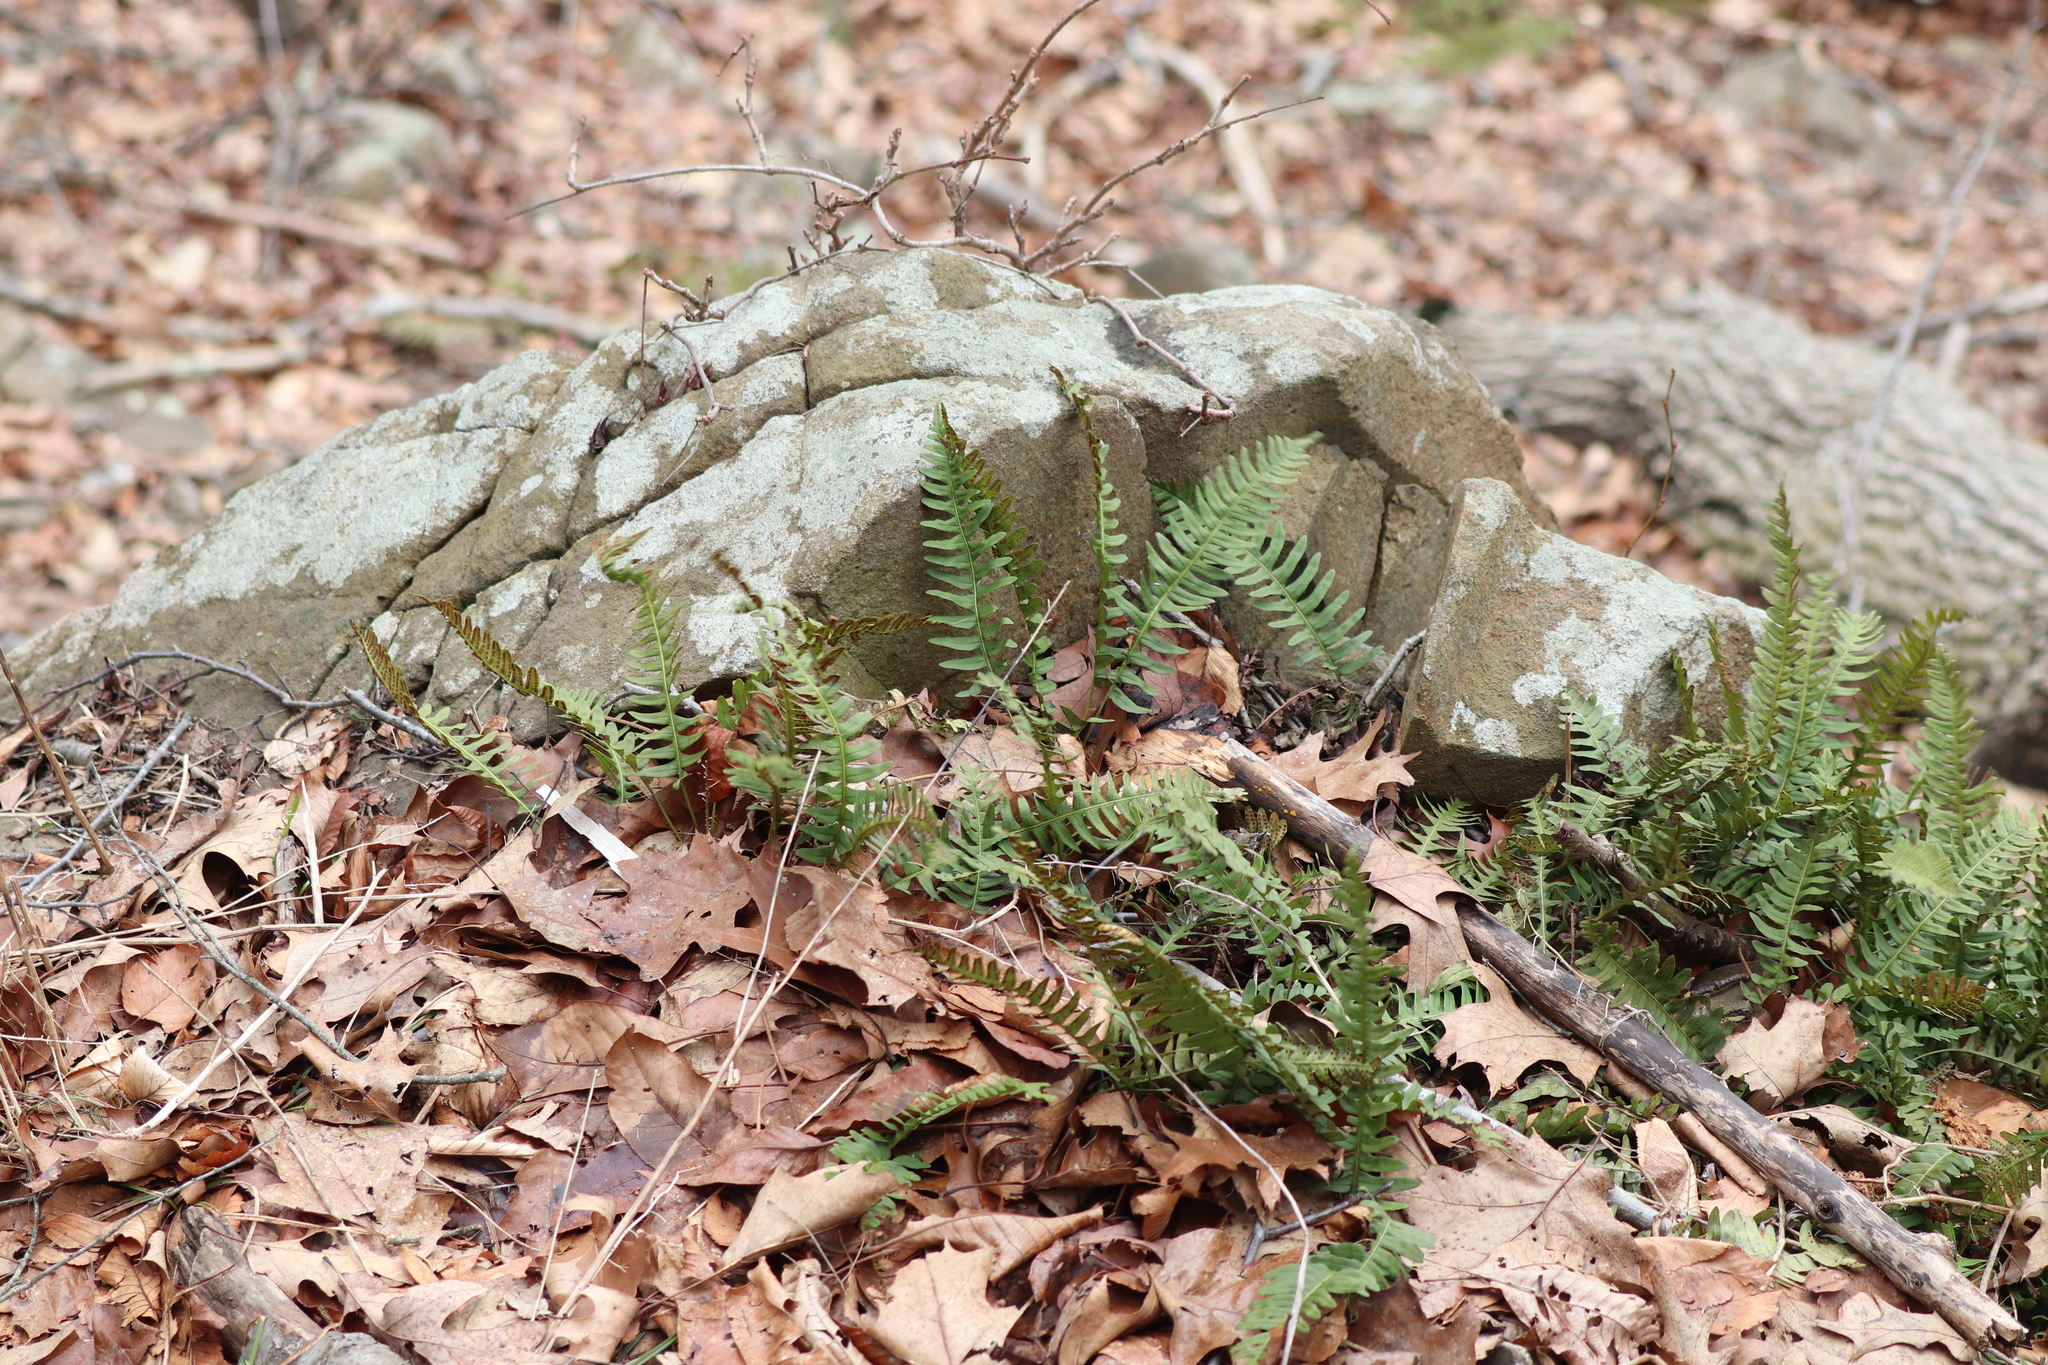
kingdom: Plantae
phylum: Tracheophyta
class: Polypodiopsida
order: Polypodiales
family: Polypodiaceae
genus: Polypodium
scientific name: Polypodium virginianum
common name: American wall fern
